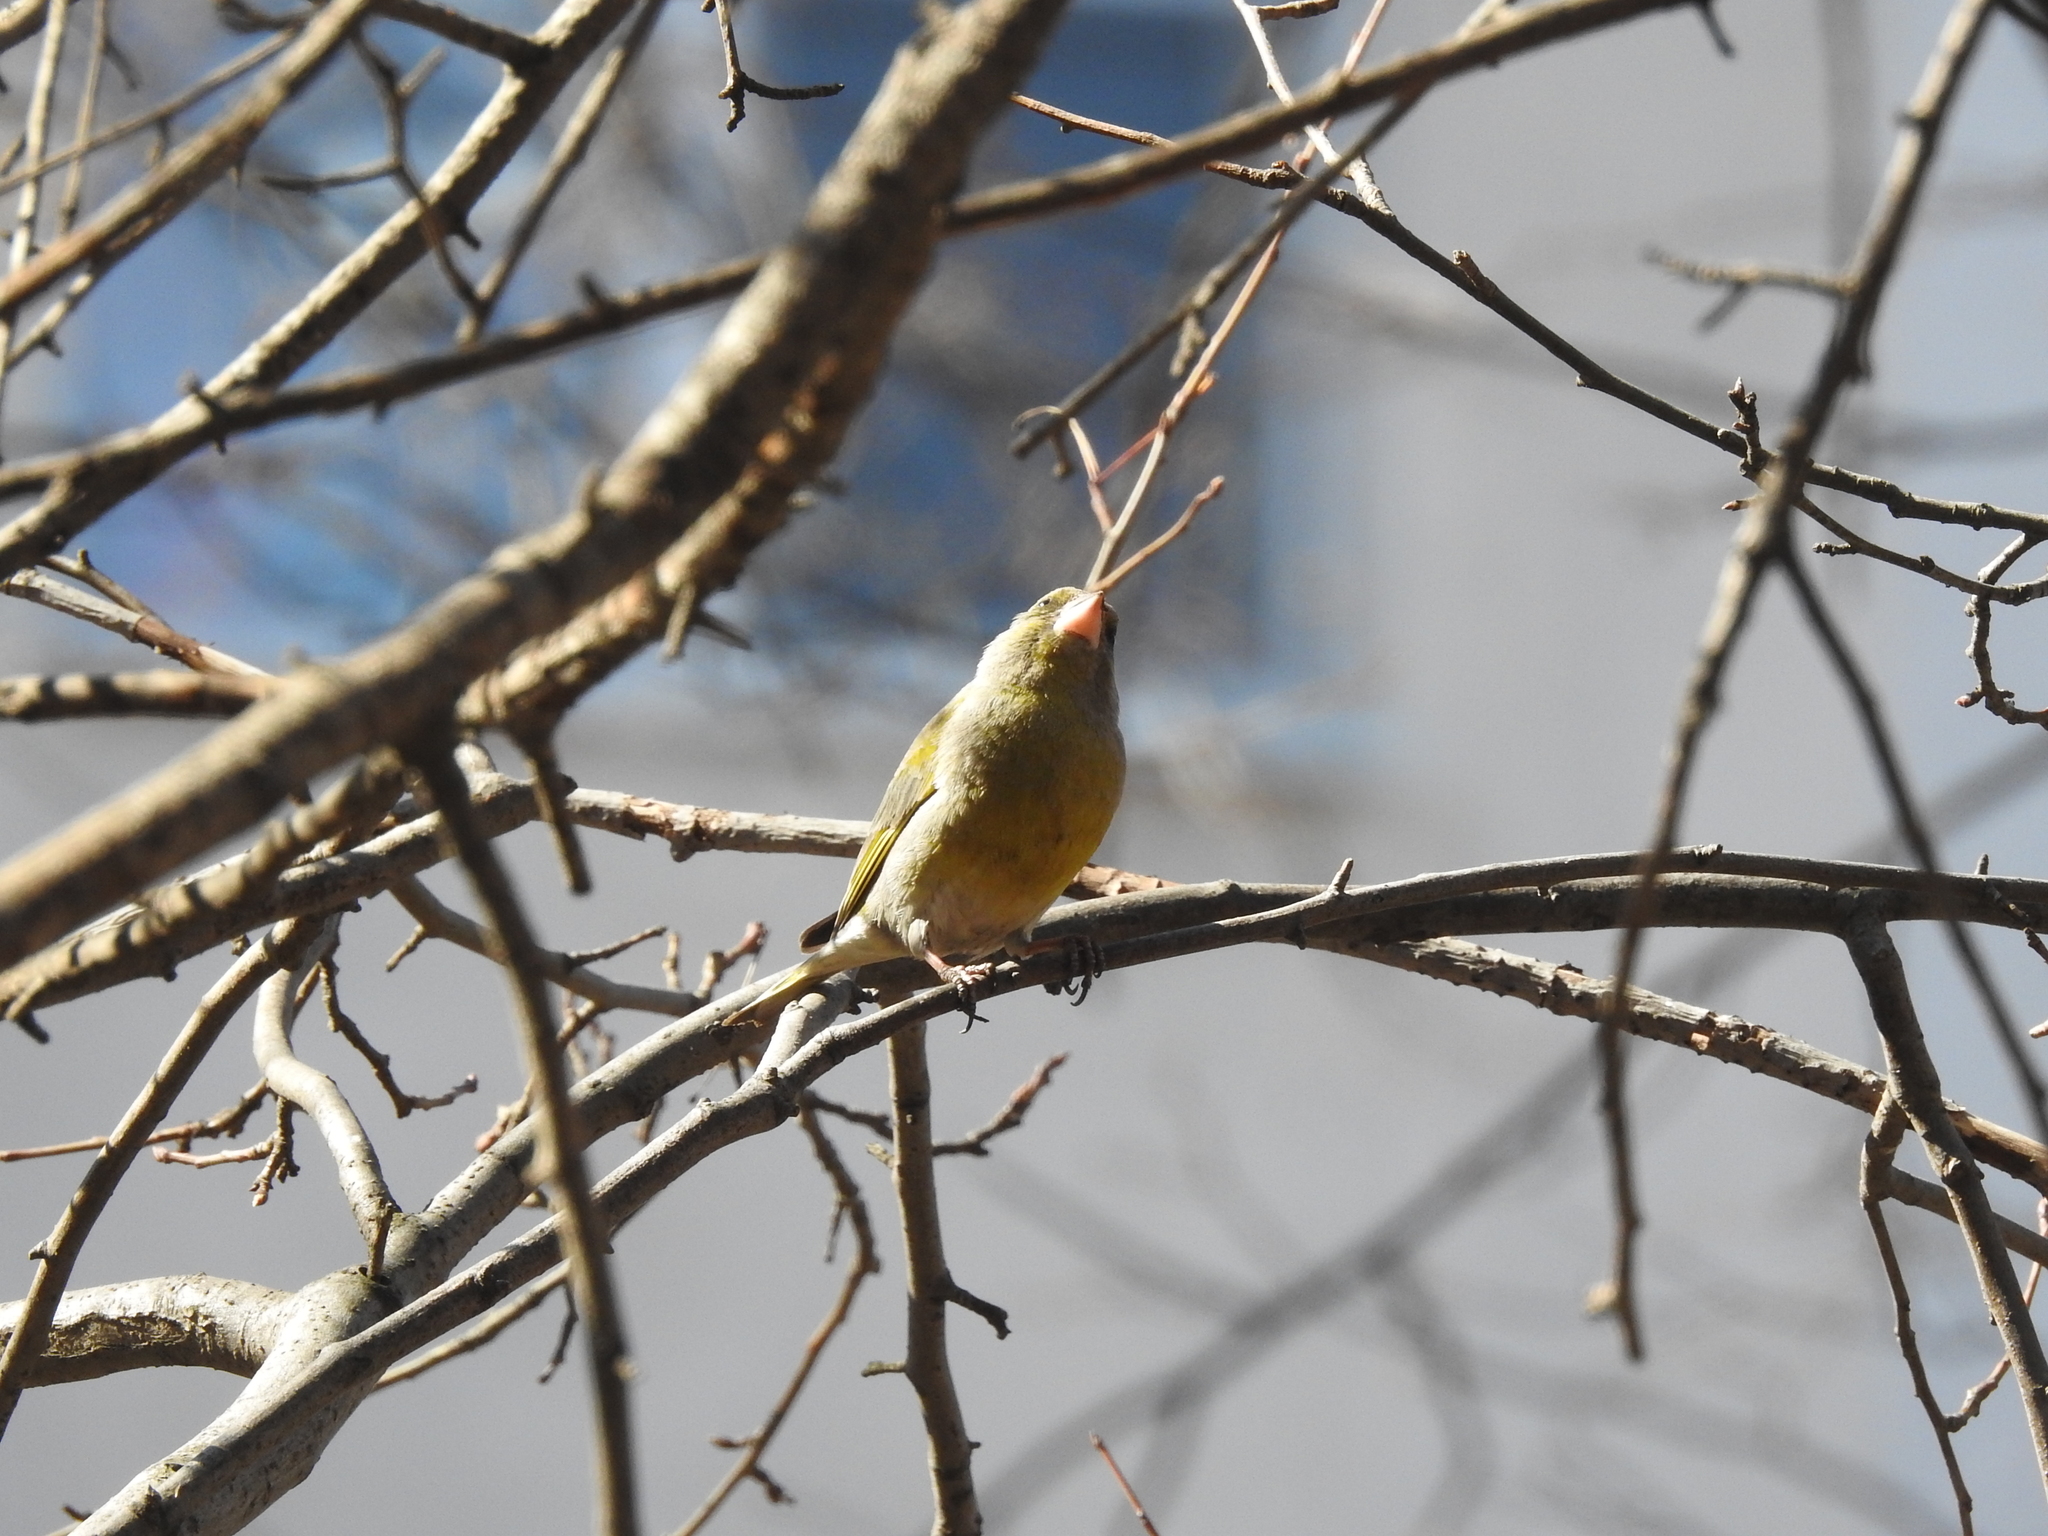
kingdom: Plantae
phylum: Tracheophyta
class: Liliopsida
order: Poales
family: Poaceae
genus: Chloris
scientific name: Chloris chloris
